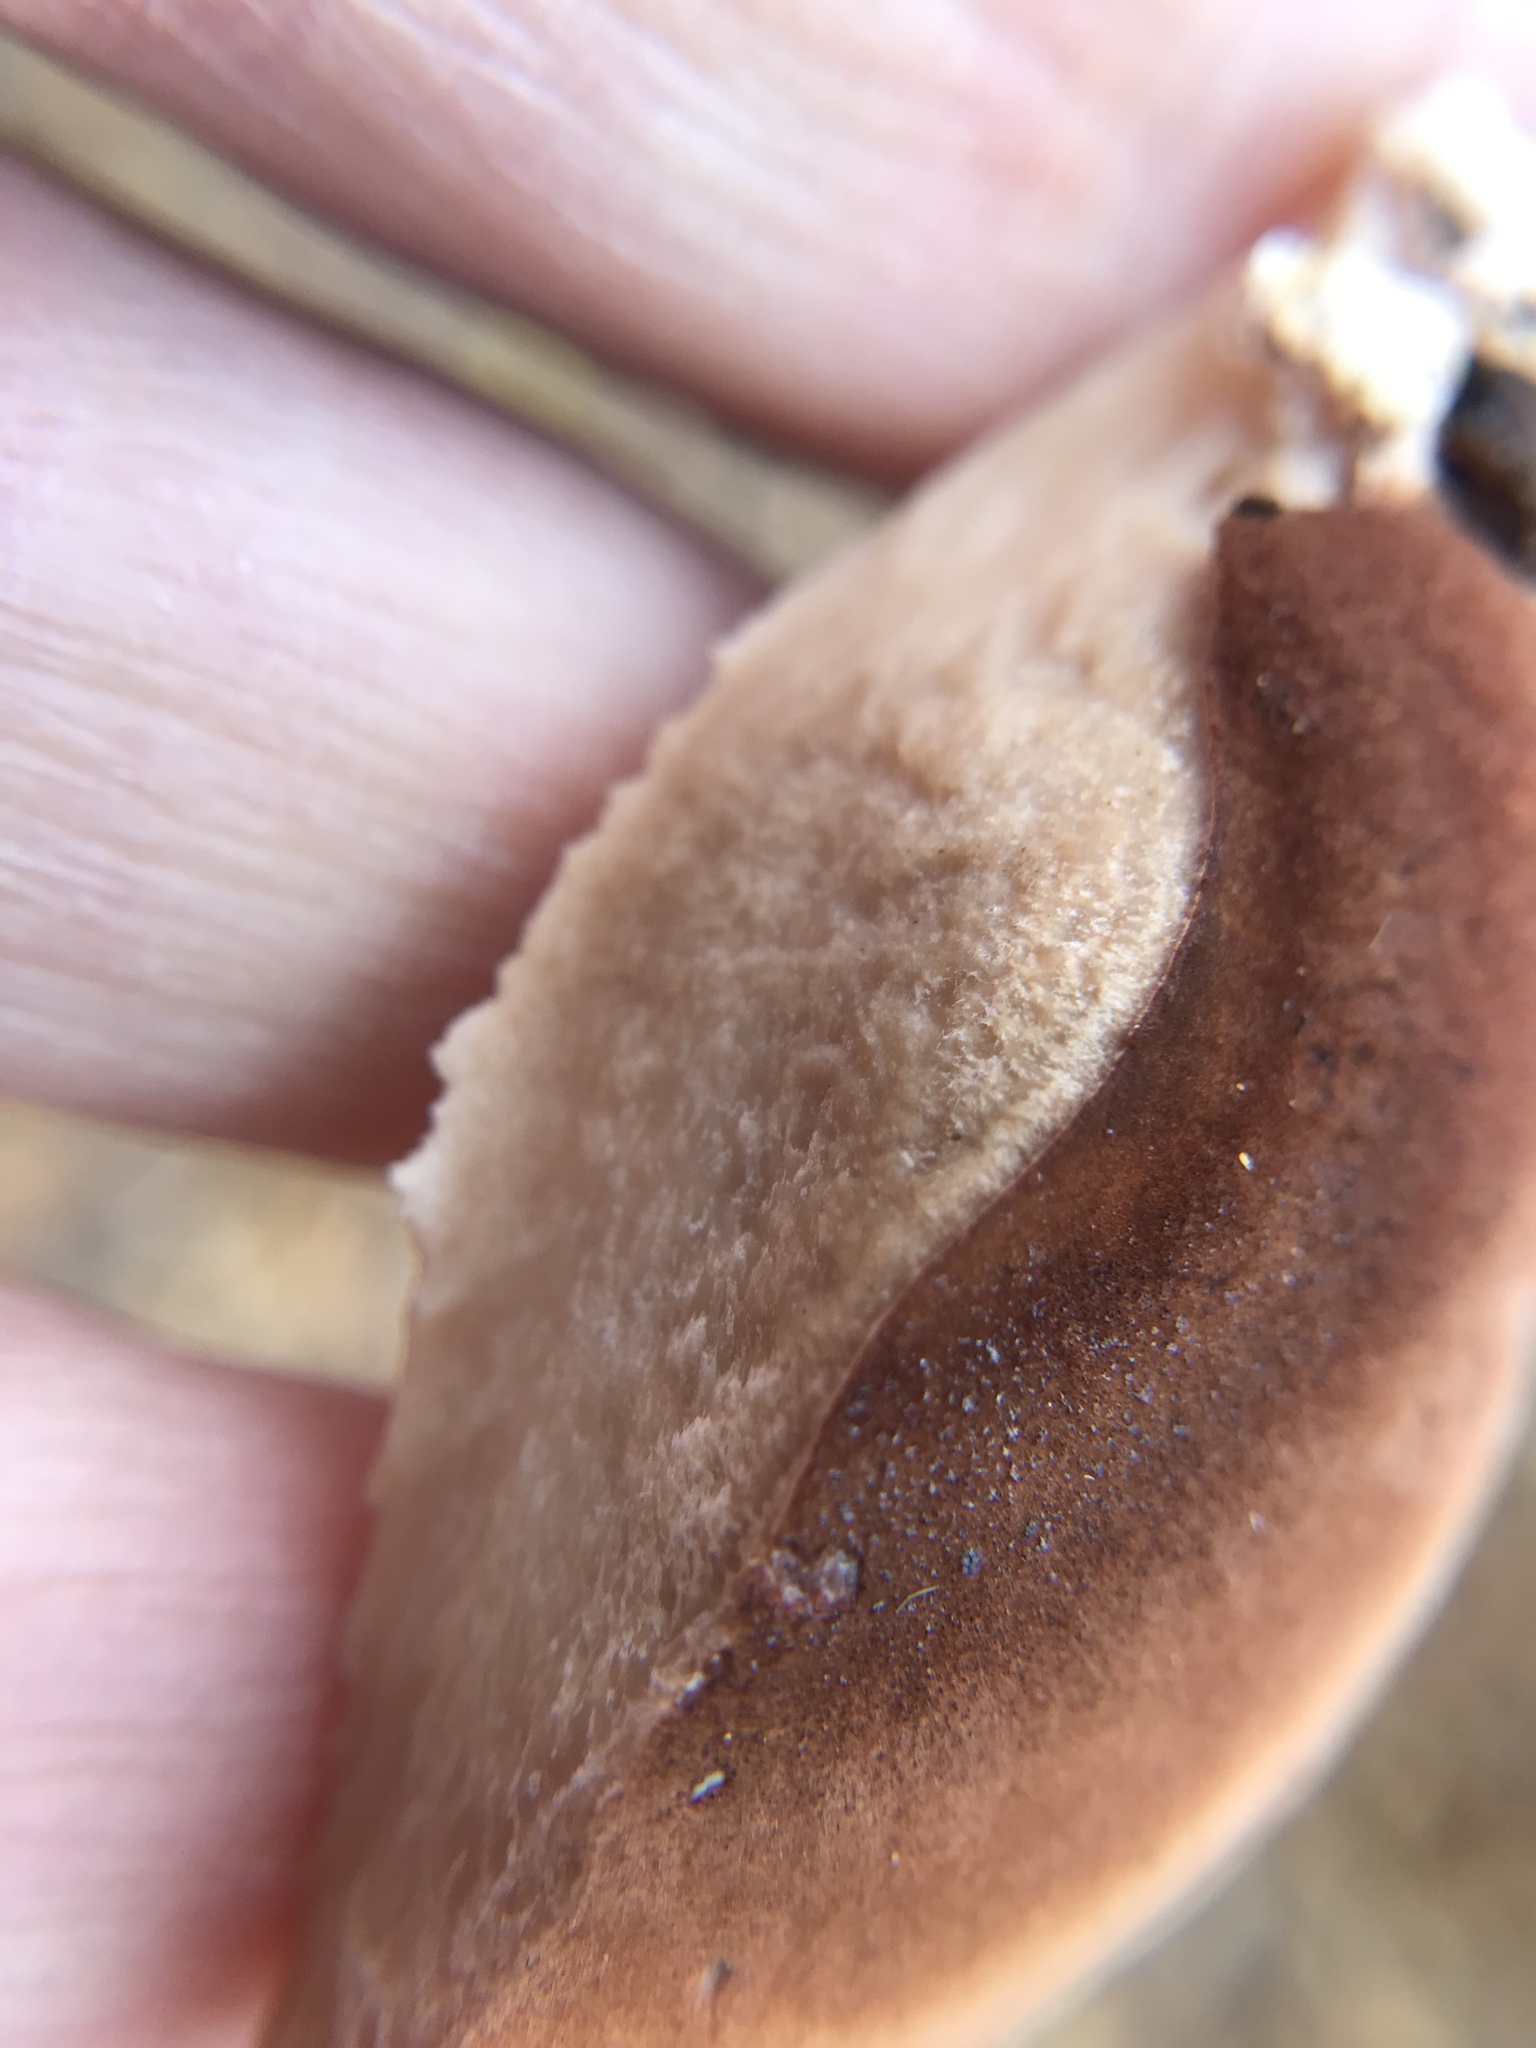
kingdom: Fungi
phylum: Basidiomycota
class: Agaricomycetes
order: Polyporales
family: Ischnodermataceae
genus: Ischnoderma
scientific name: Ischnoderma resinosum
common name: Resinous polypore
